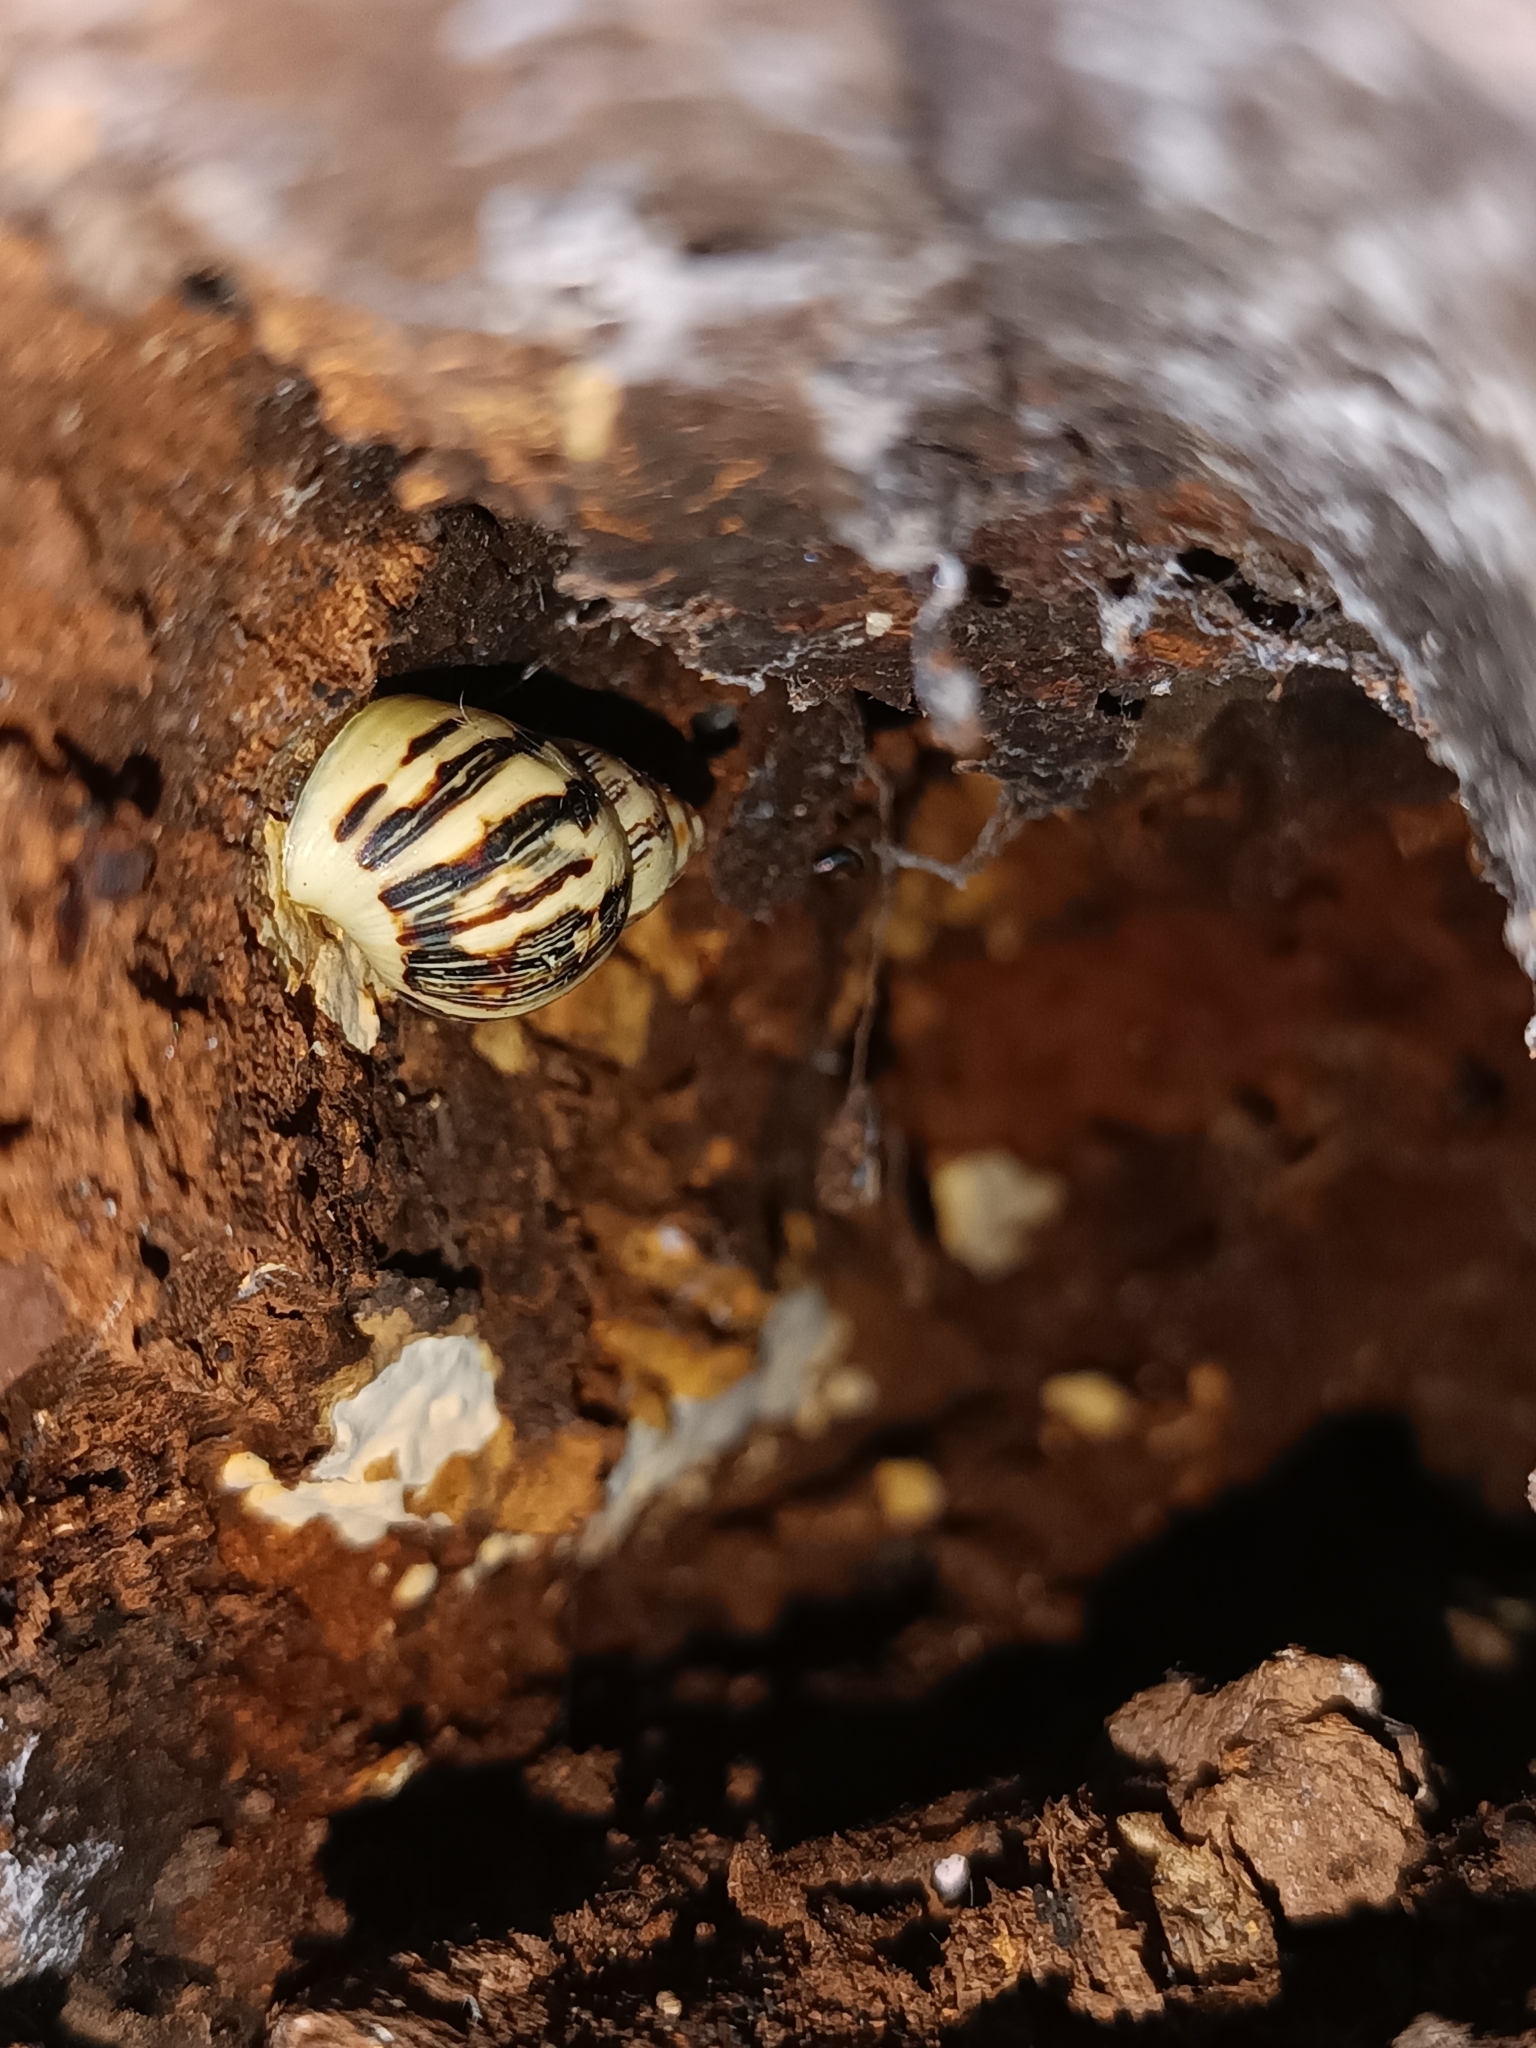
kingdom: Animalia
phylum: Mollusca
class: Gastropoda
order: Stylommatophora
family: Bulimulidae
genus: Drymaeus
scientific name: Drymaeus papyraceus
